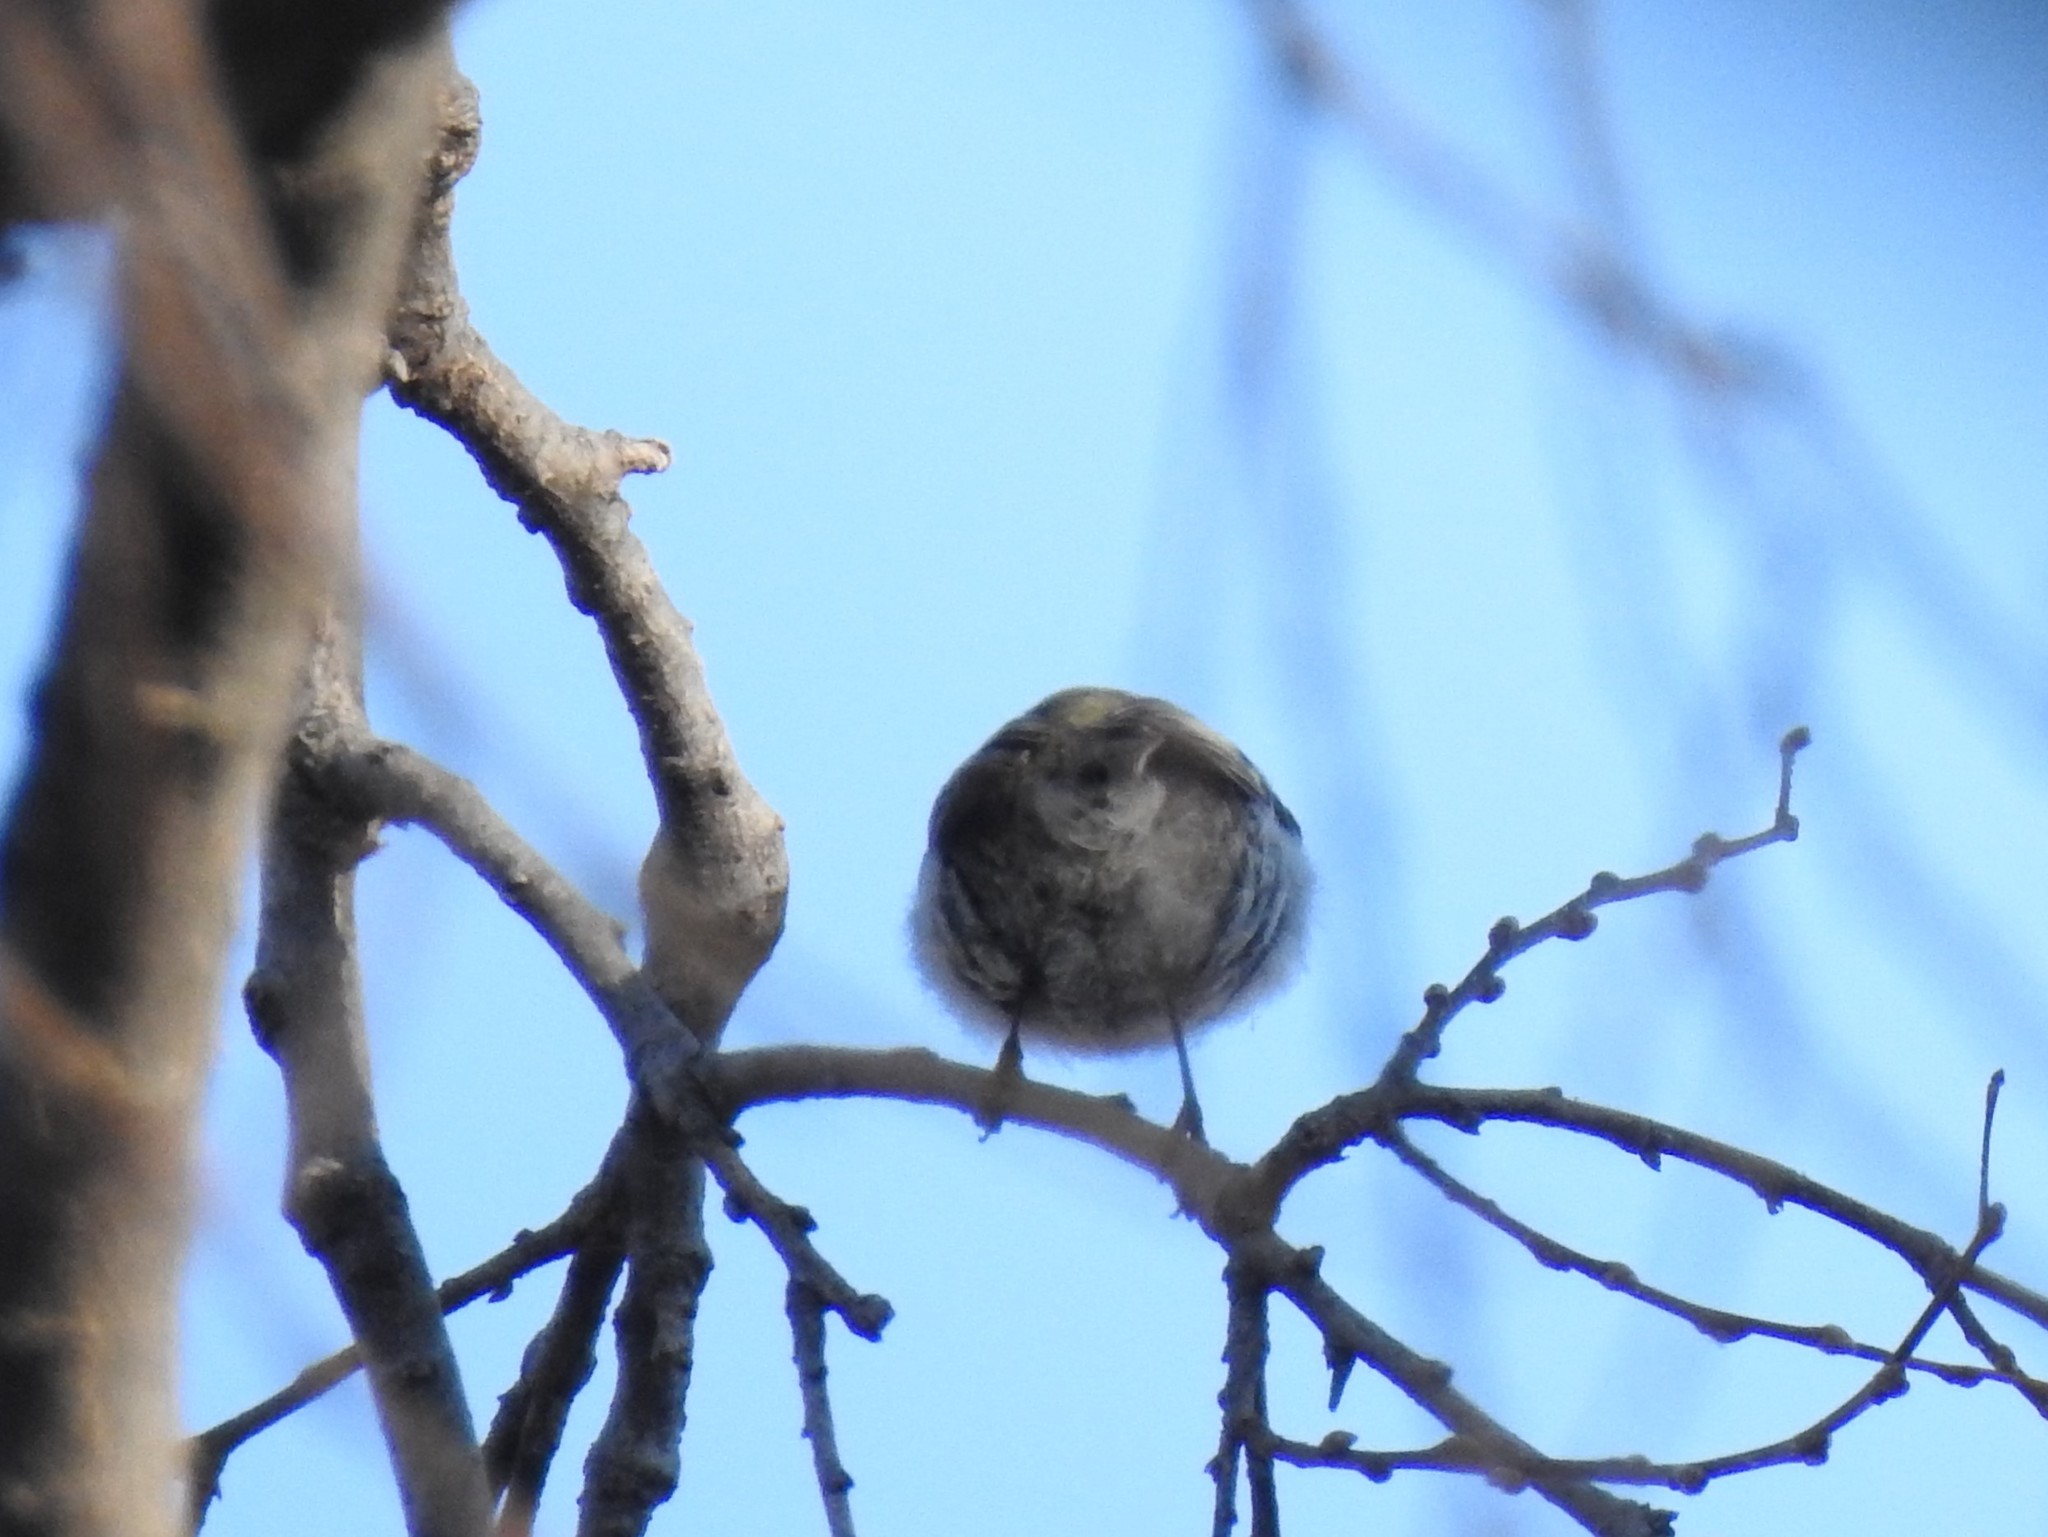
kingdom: Animalia
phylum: Chordata
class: Aves
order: Passeriformes
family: Regulidae
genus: Regulus
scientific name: Regulus satrapa
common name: Golden-crowned kinglet
